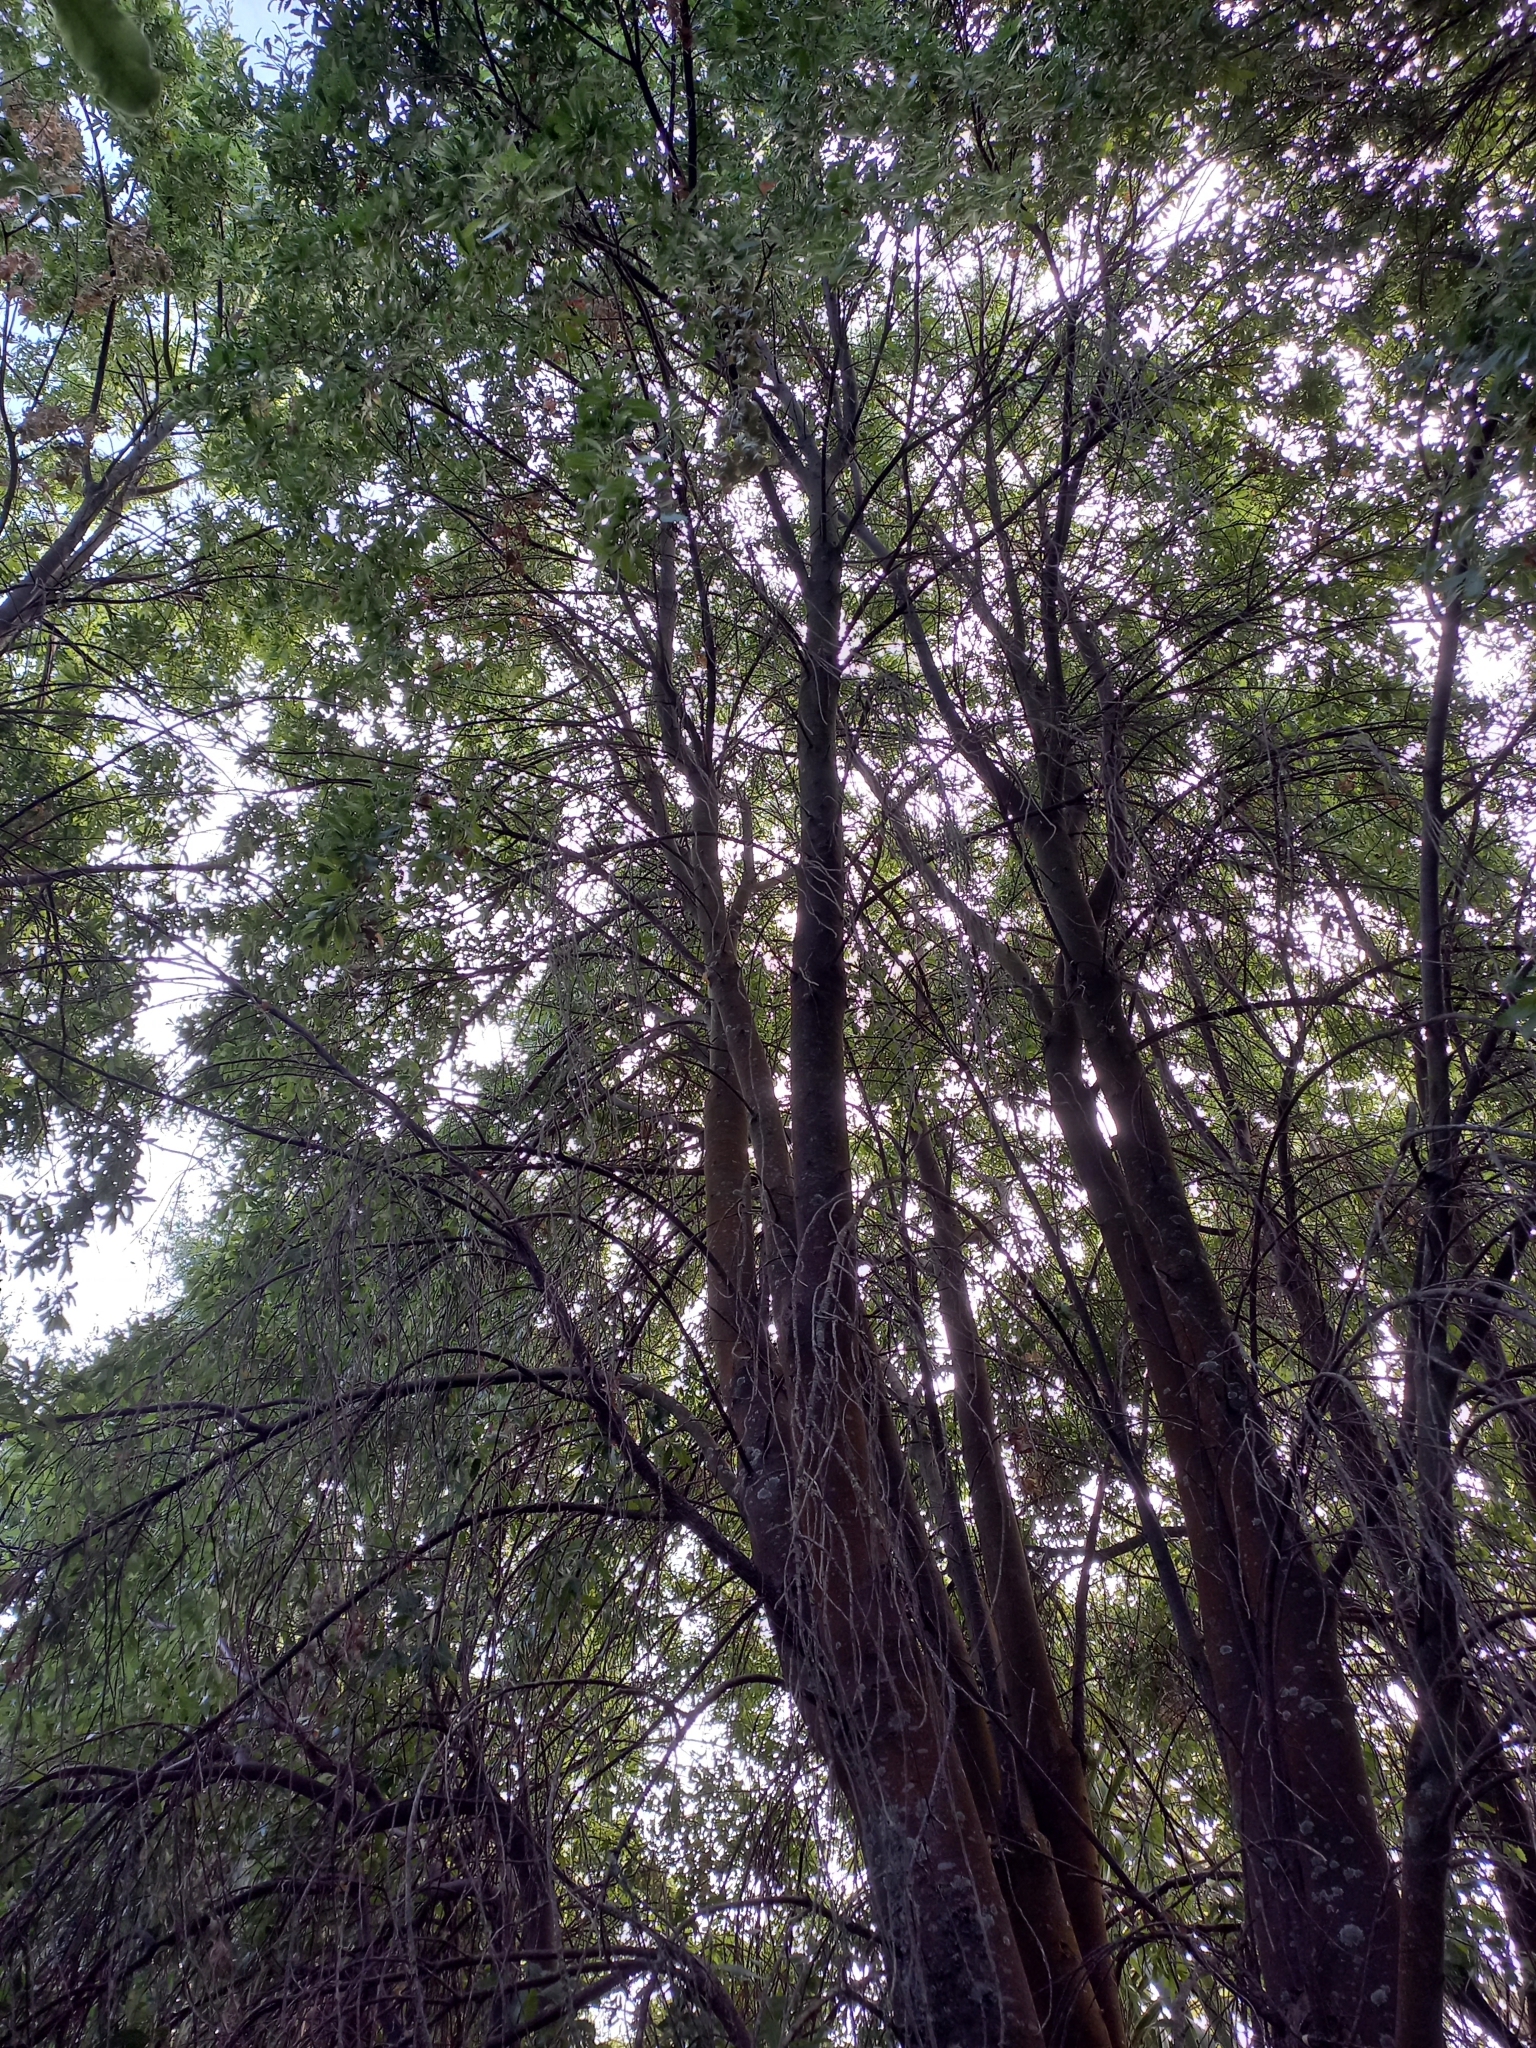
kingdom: Plantae
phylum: Tracheophyta
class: Magnoliopsida
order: Malvales
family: Malvaceae
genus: Hoheria
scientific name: Hoheria angustifolia
